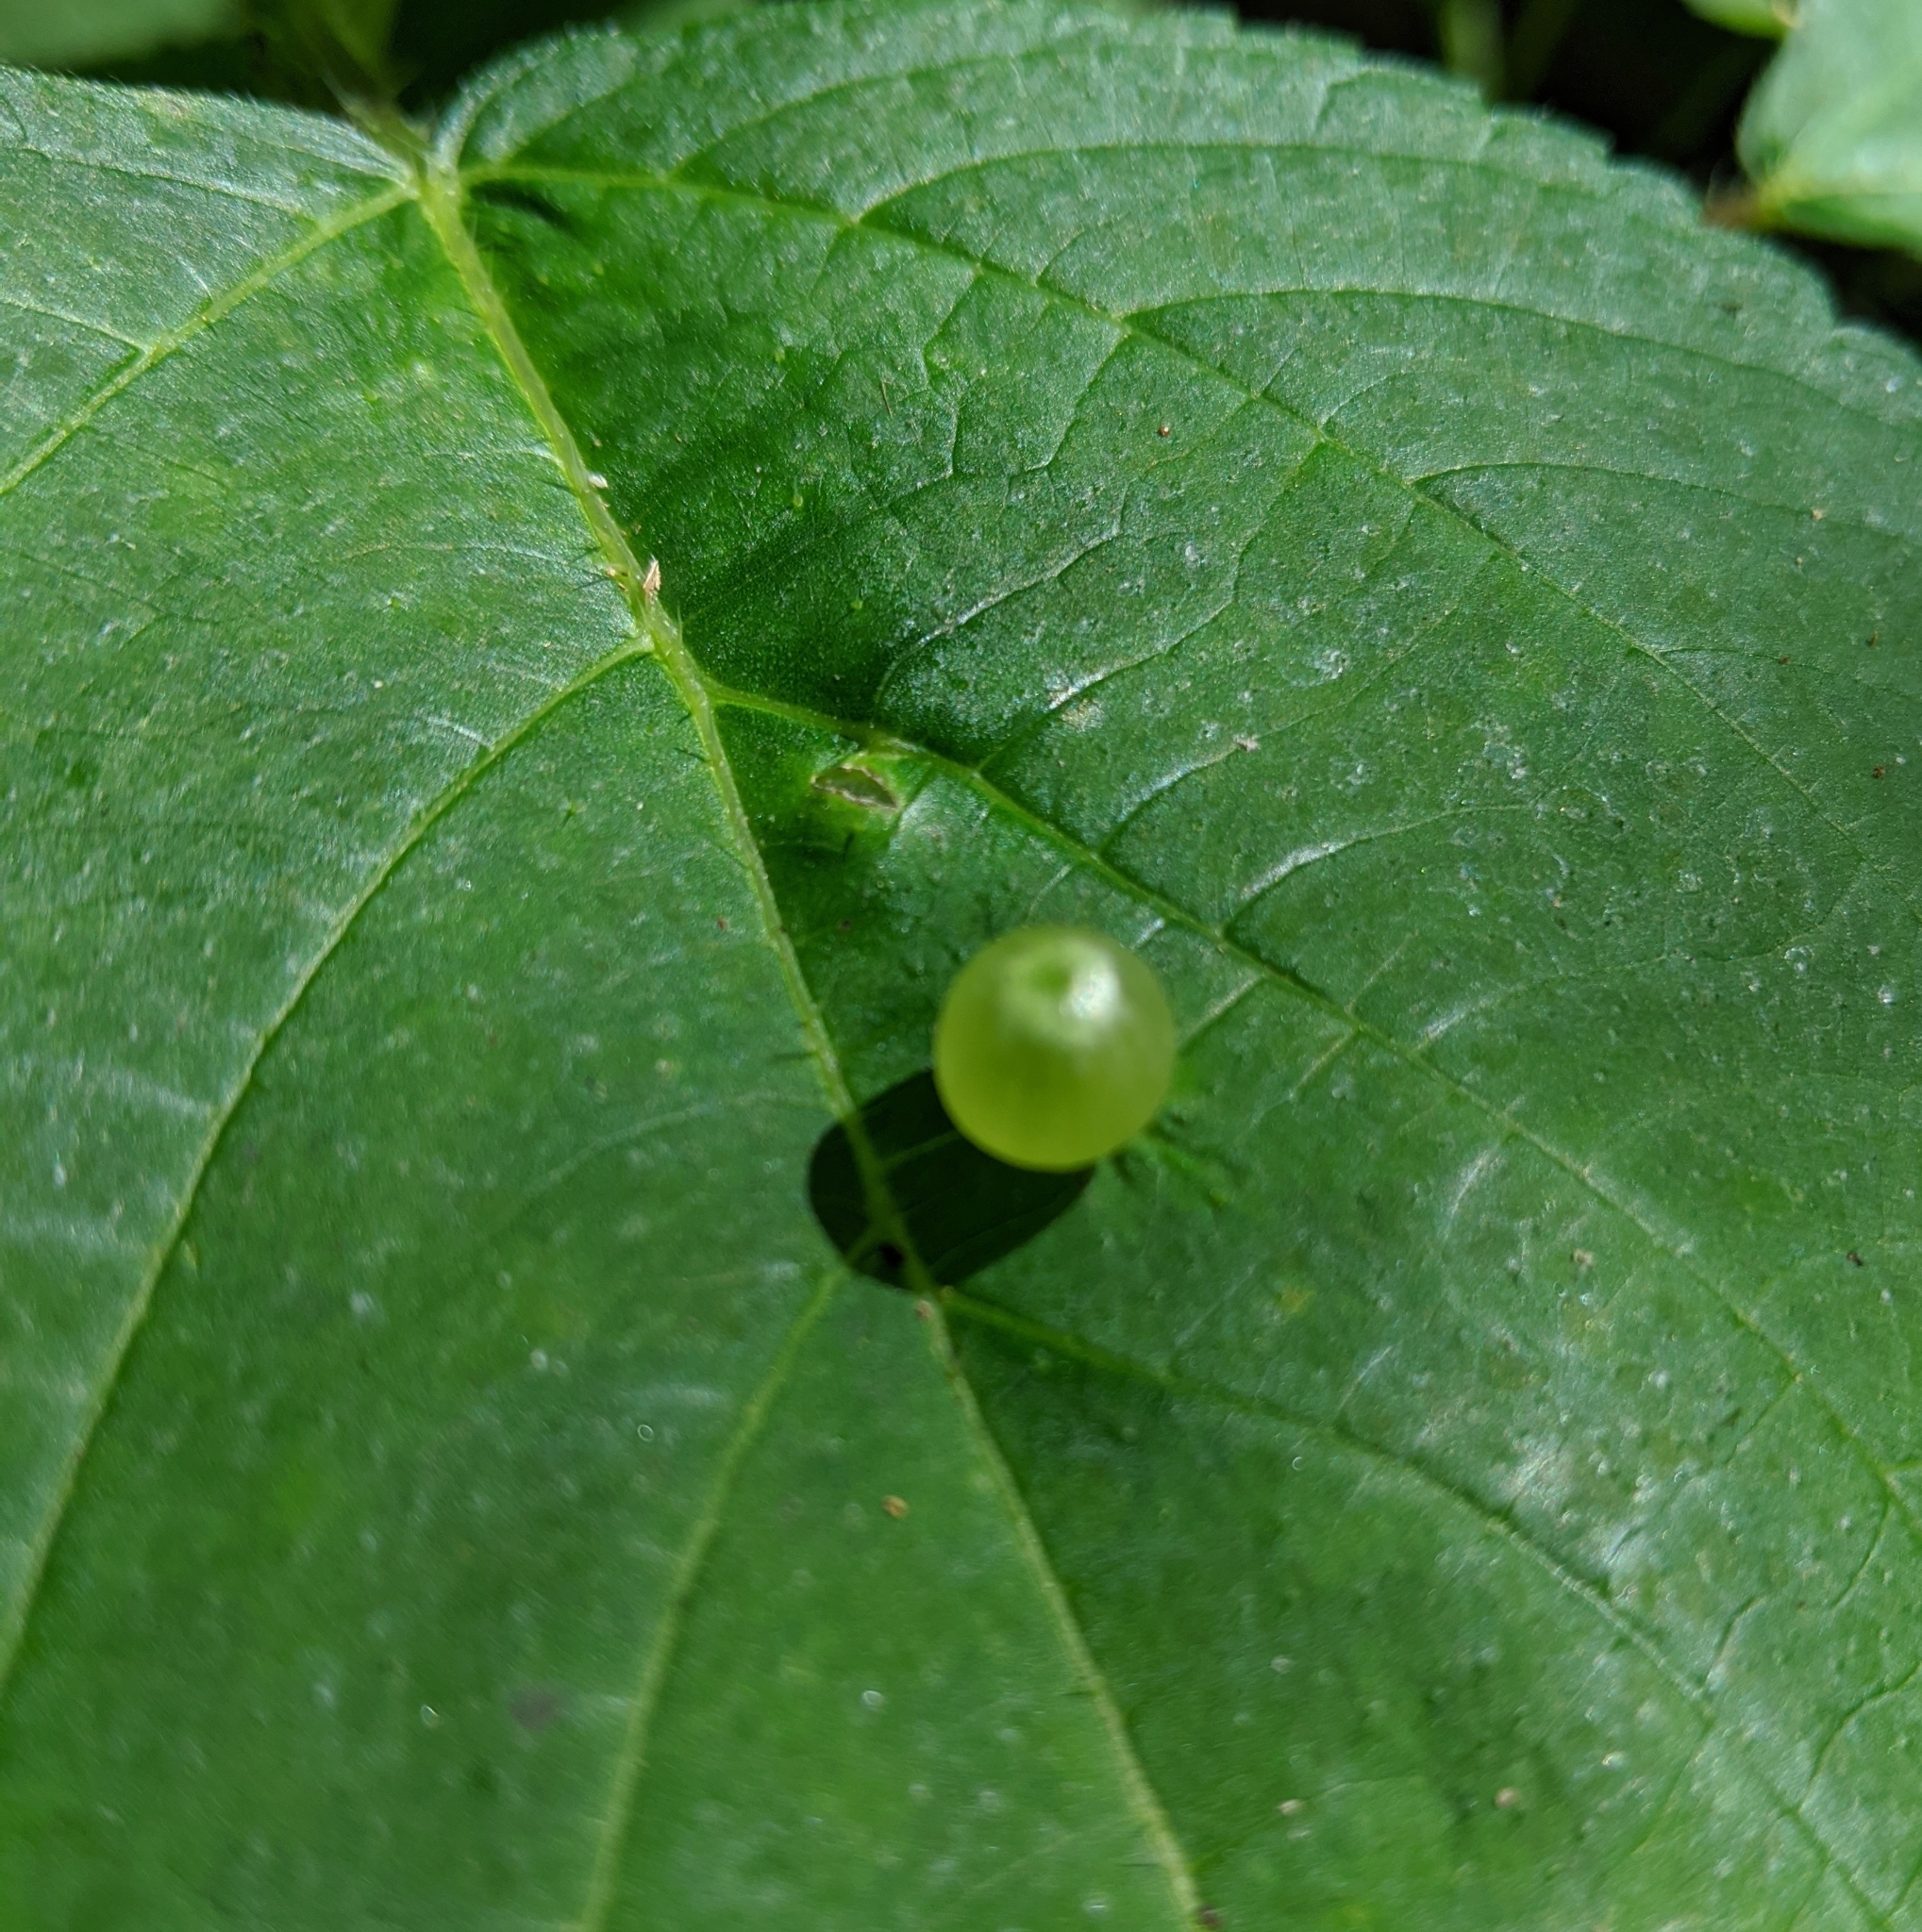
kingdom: Animalia
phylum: Arthropoda
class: Insecta
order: Diptera
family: Cecidomyiidae
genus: Dasineura
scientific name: Dasineura investita
